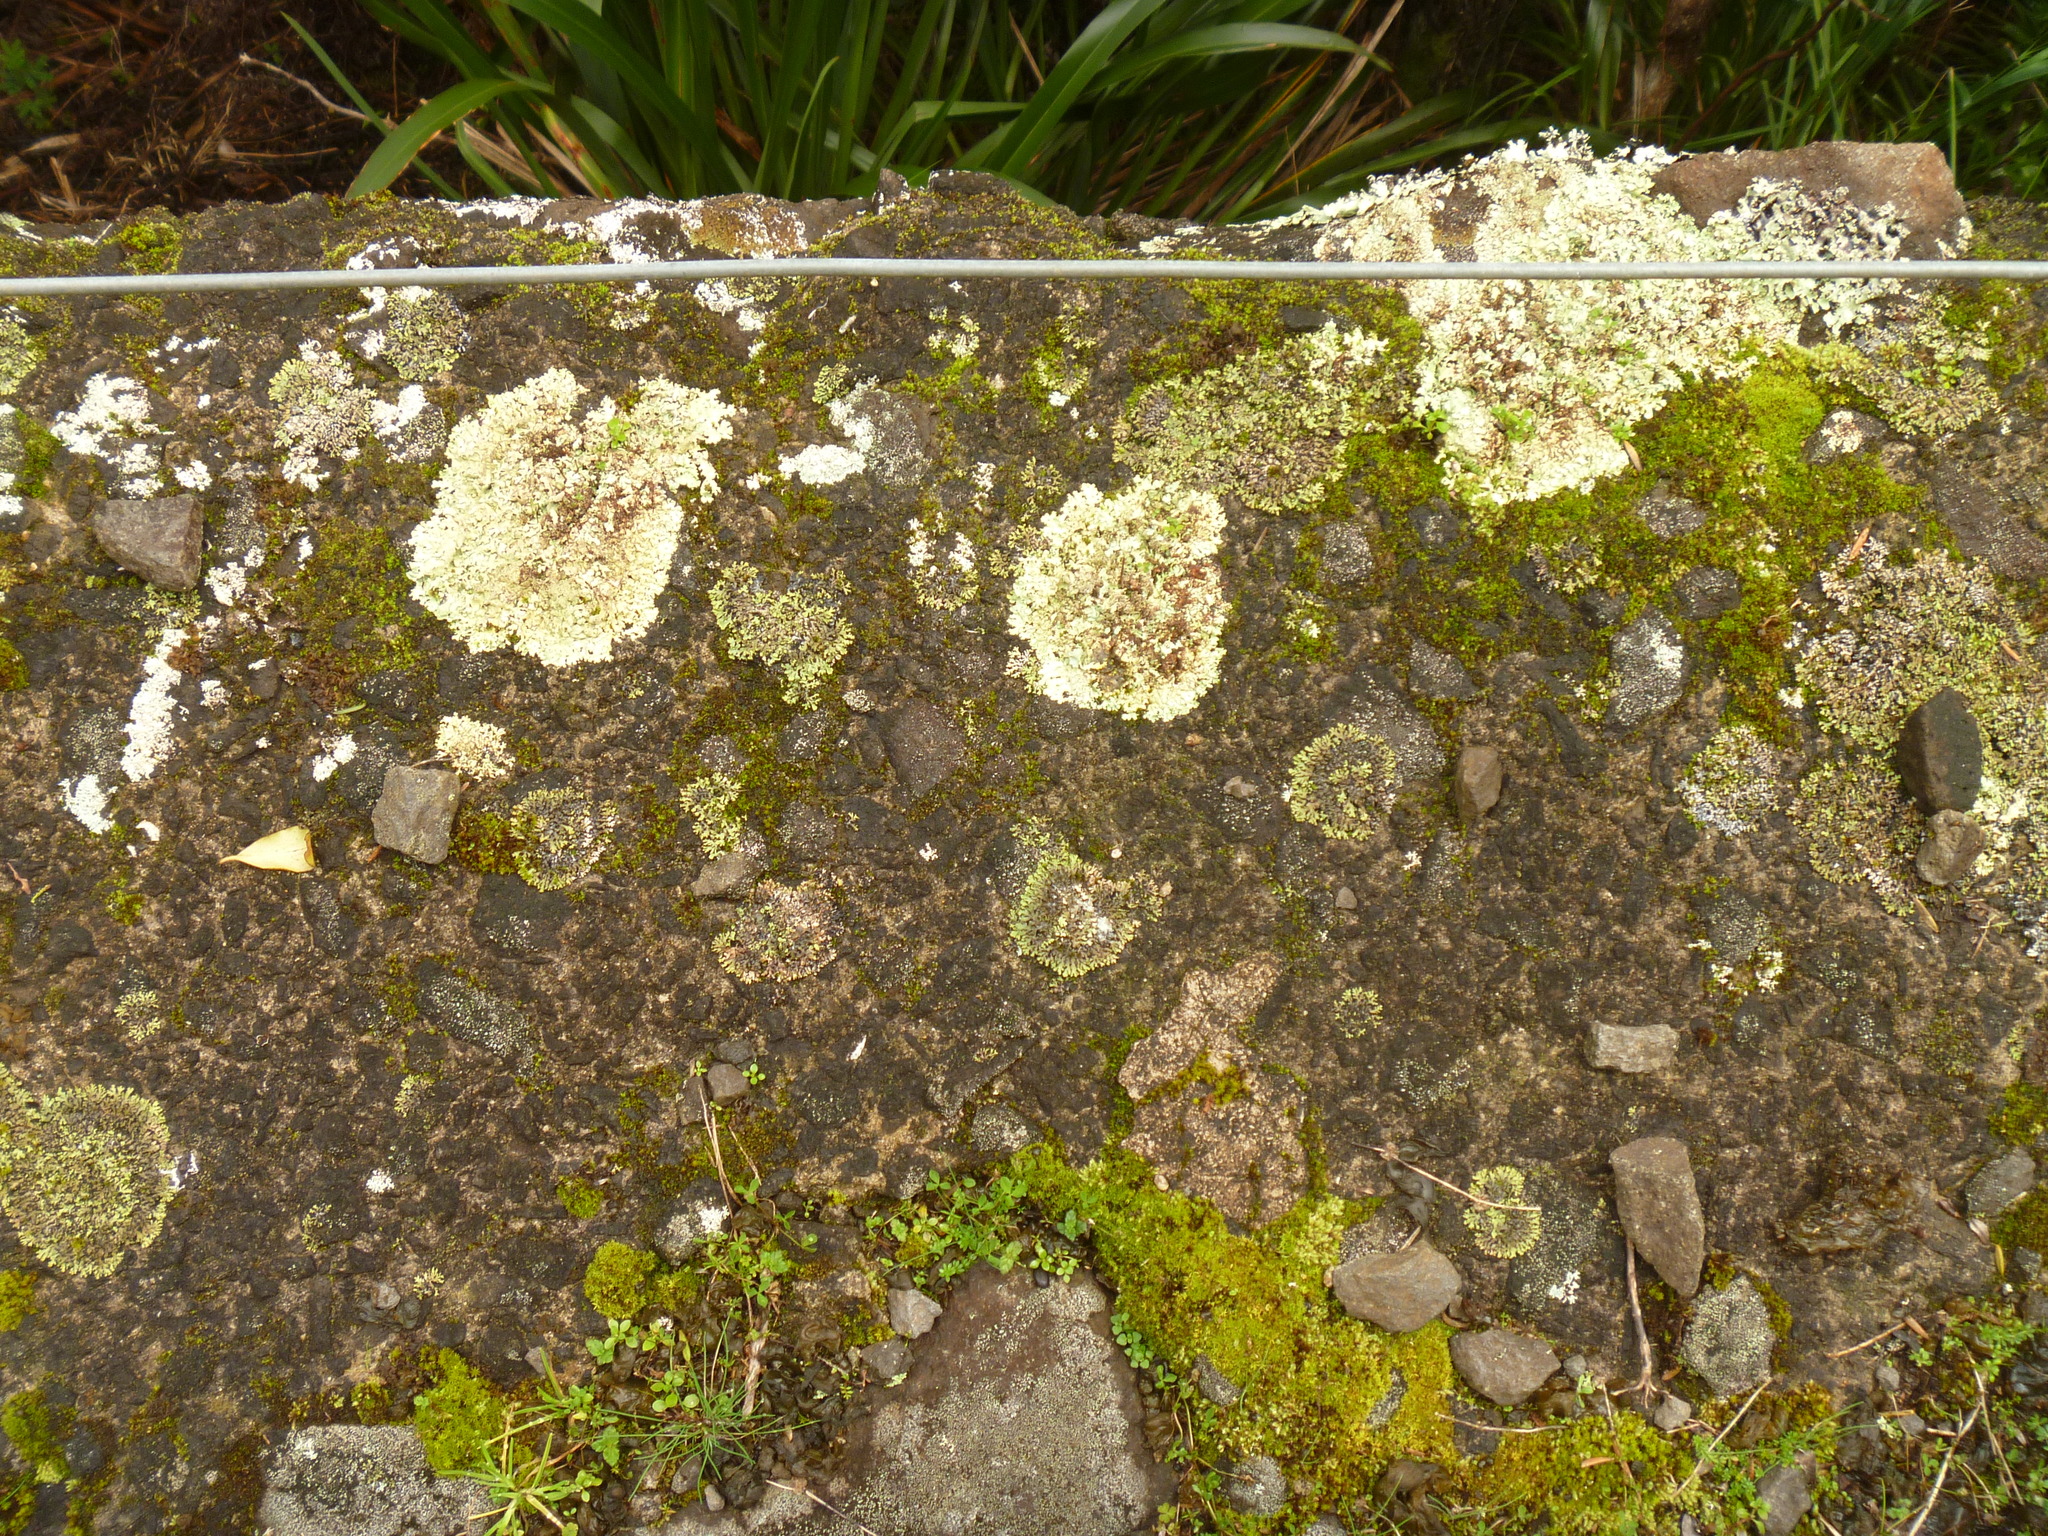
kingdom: Fungi
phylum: Ascomycota
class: Lecanoromycetes
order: Lecanorales
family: Parmeliaceae
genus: Xanthoparmelia
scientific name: Xanthoparmelia scabrosa
